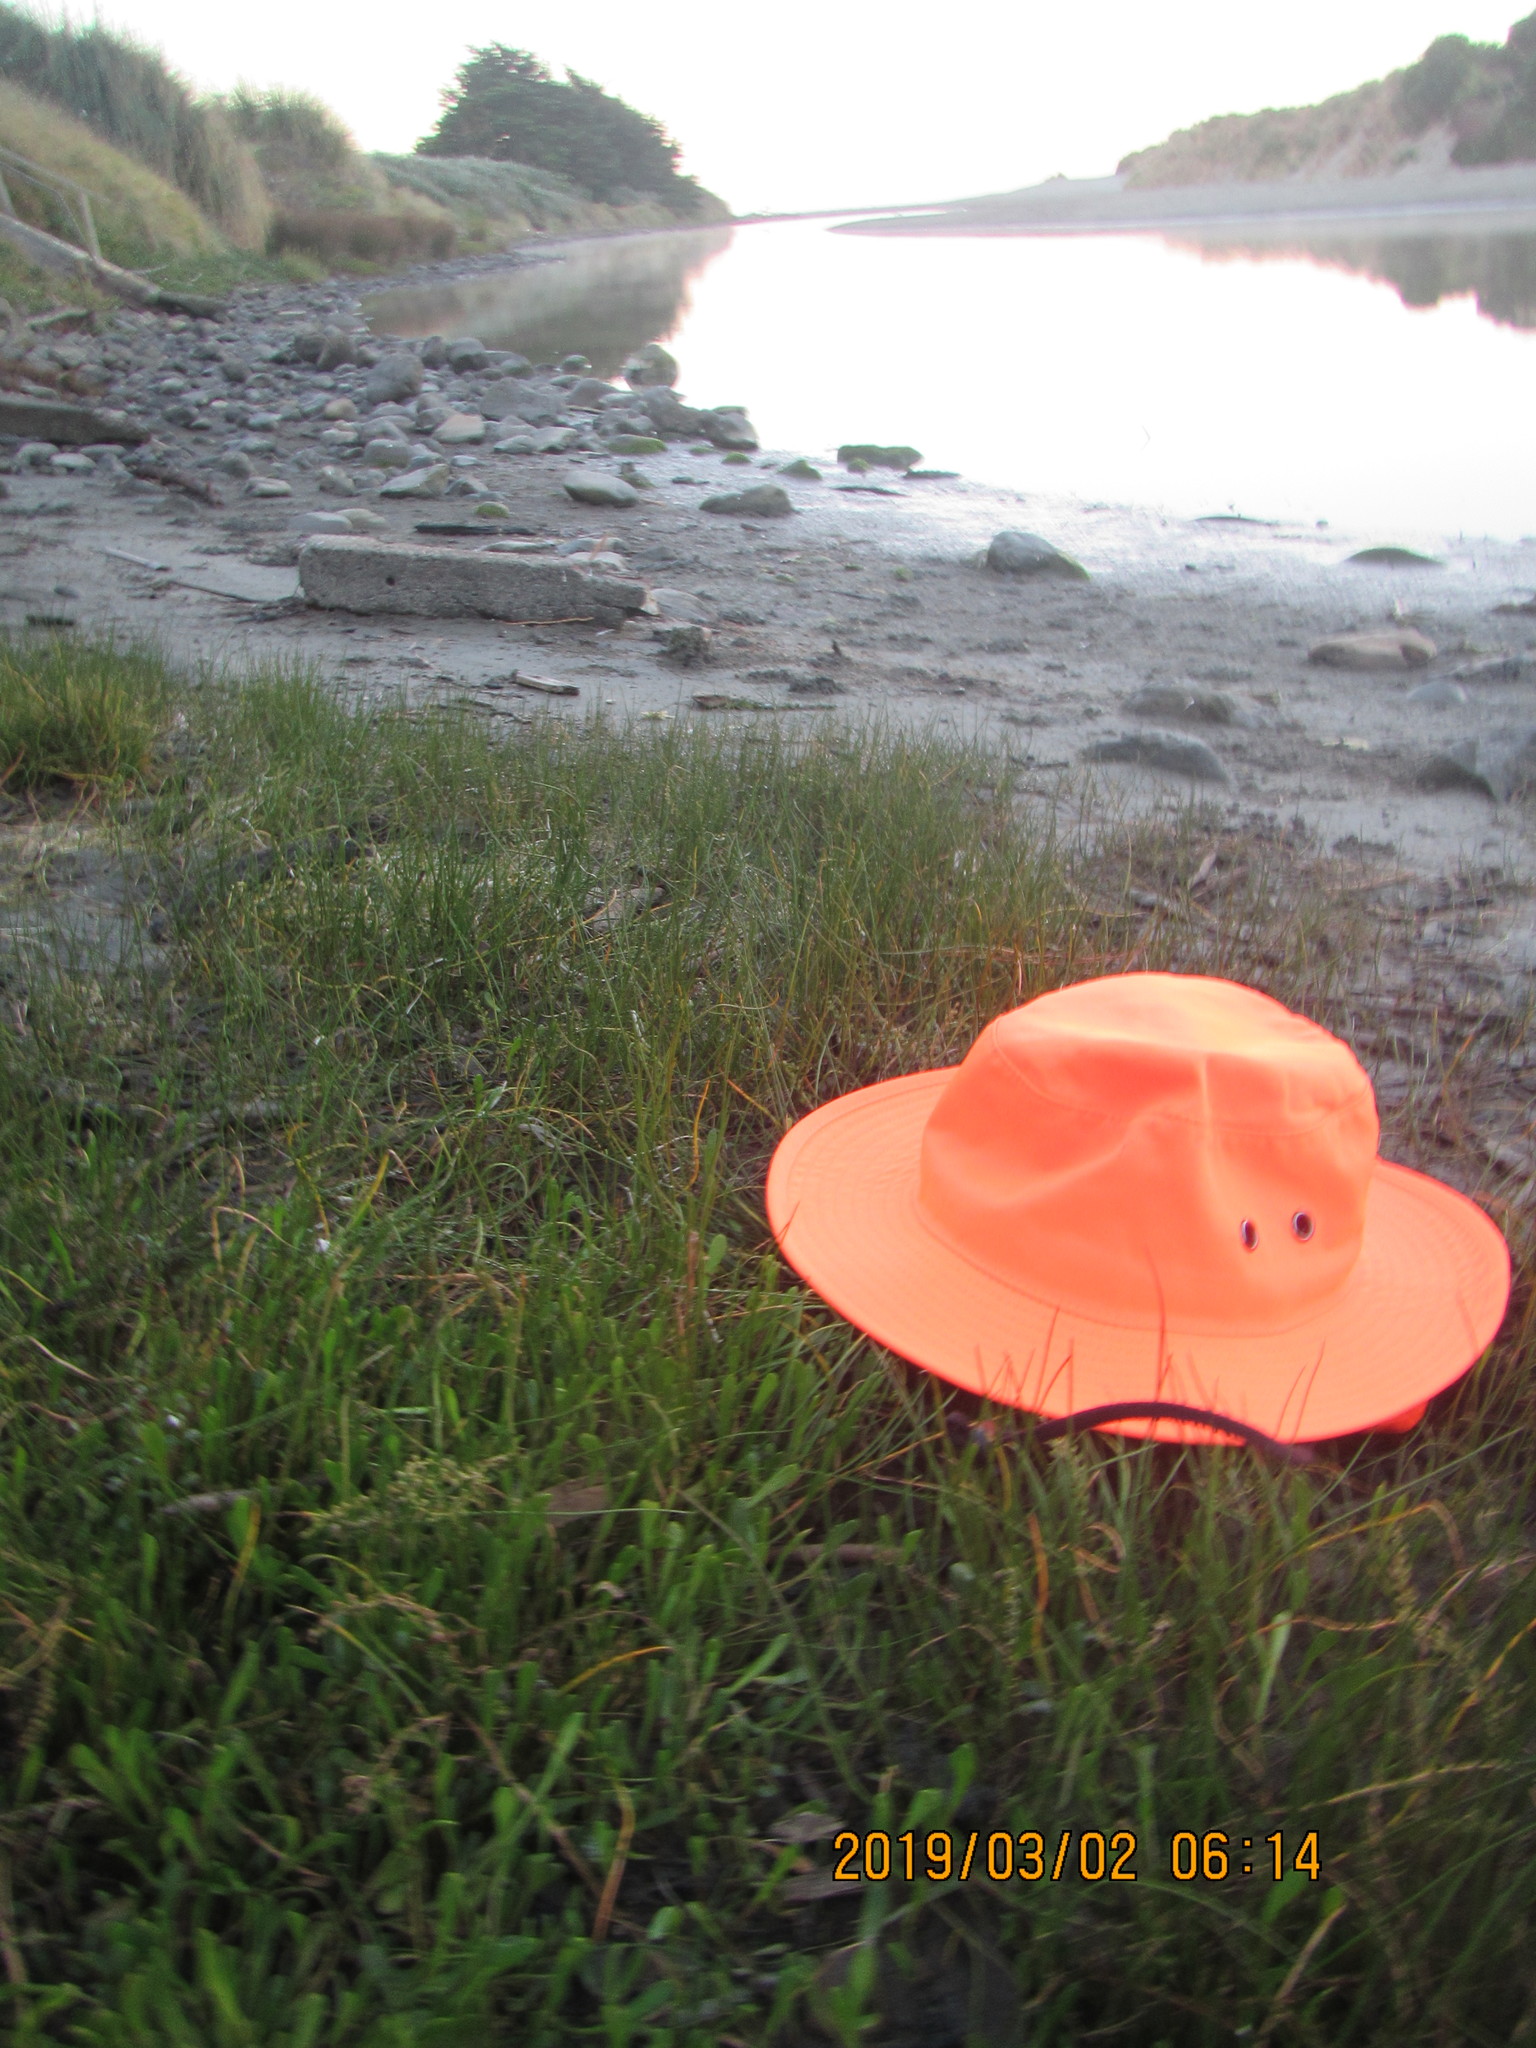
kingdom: Plantae
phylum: Tracheophyta
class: Liliopsida
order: Alismatales
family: Juncaginaceae
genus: Triglochin
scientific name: Triglochin striata
